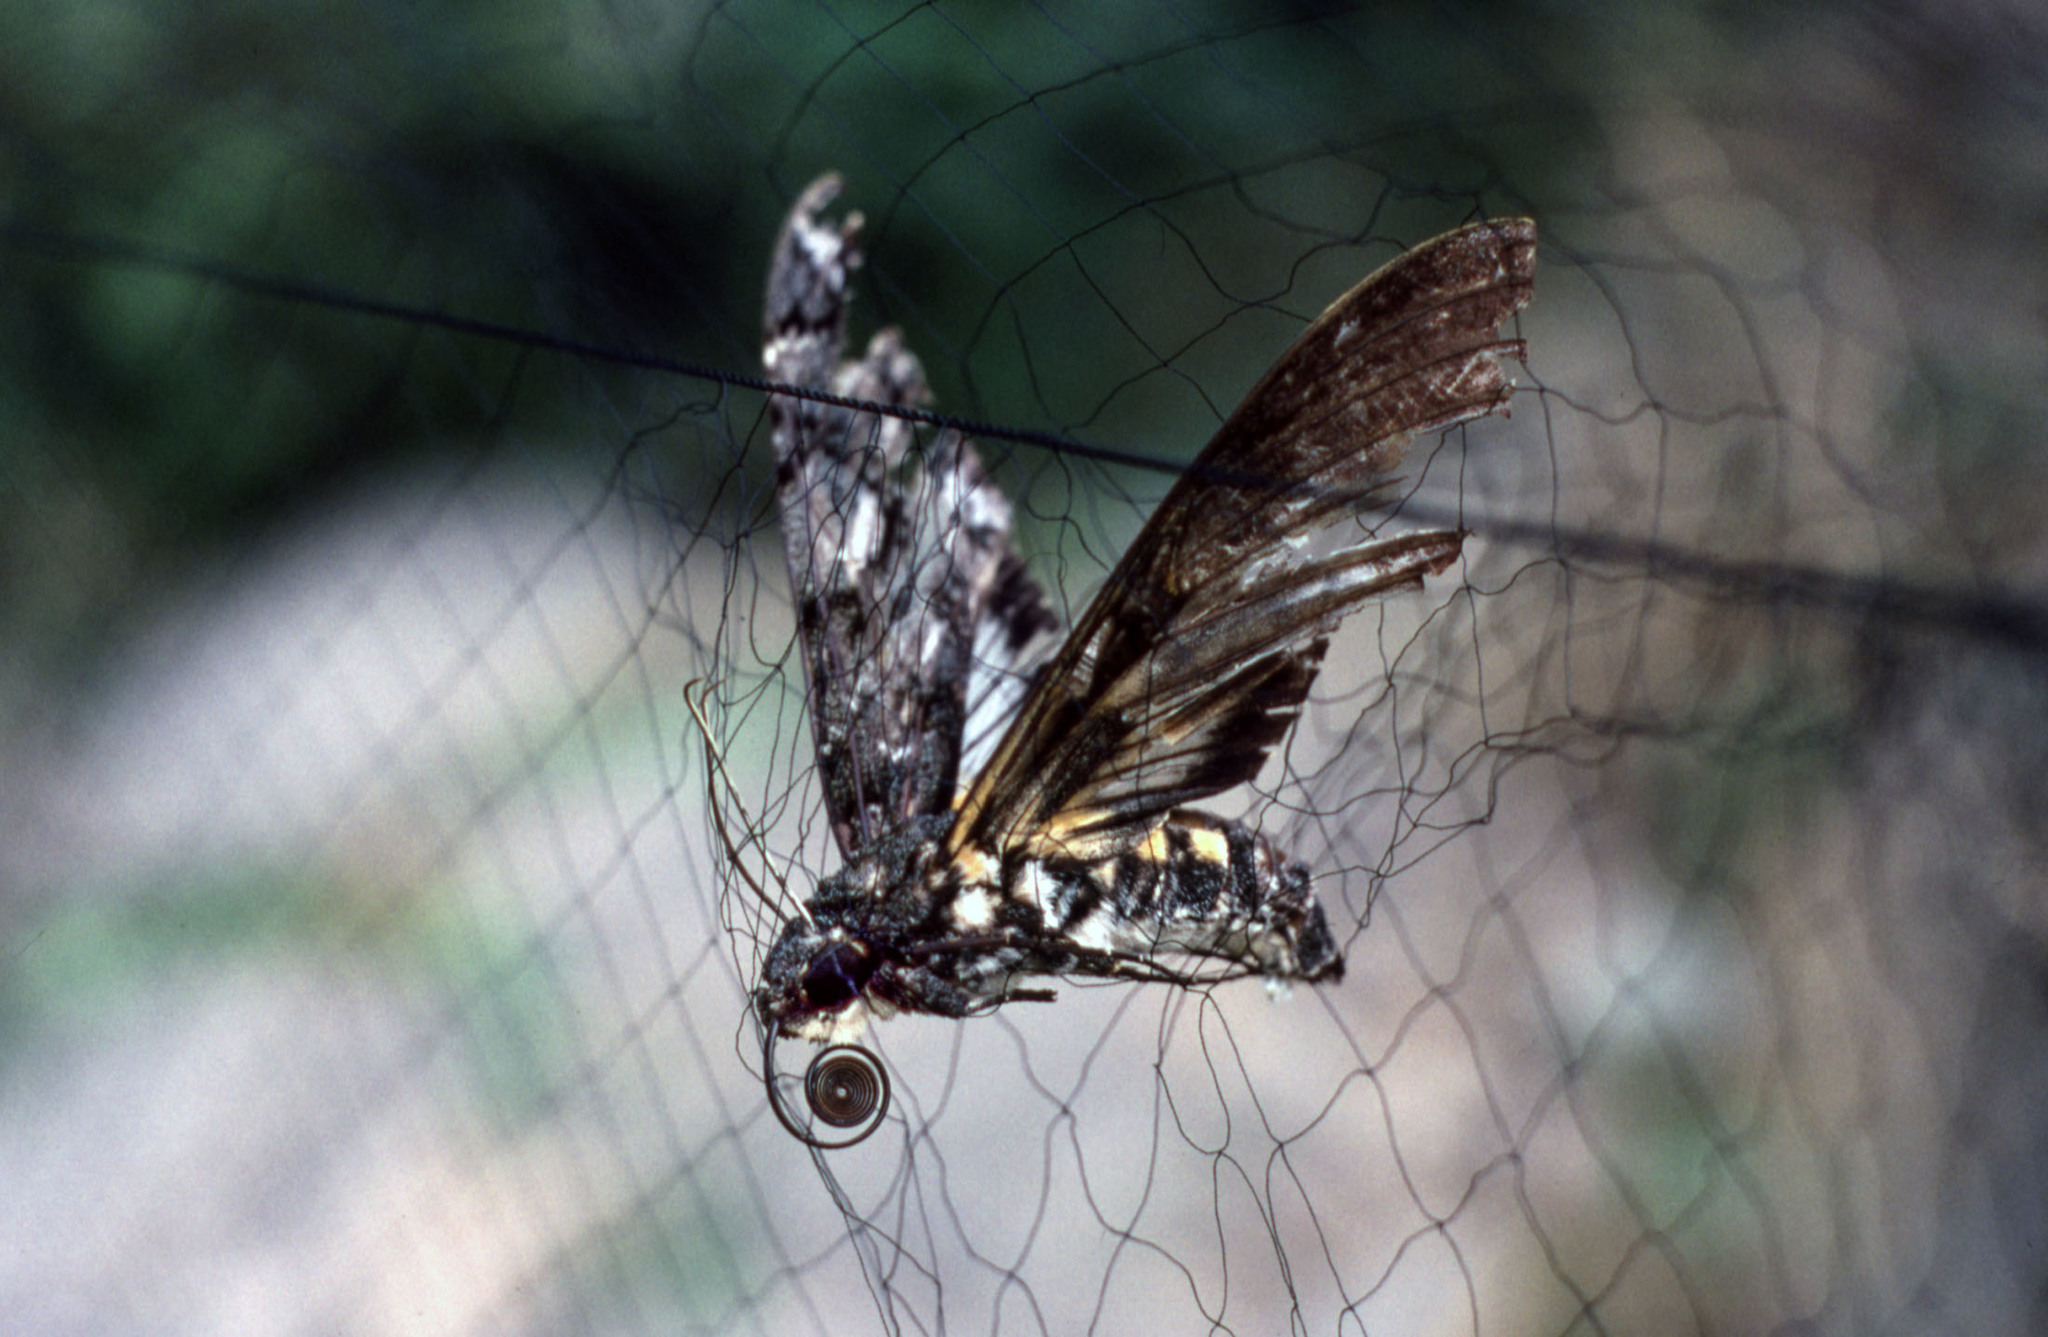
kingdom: Animalia
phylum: Arthropoda
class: Insecta
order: Lepidoptera
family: Sphingidae
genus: Cocytius
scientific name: Cocytius antaeus
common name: Giant sphinx
